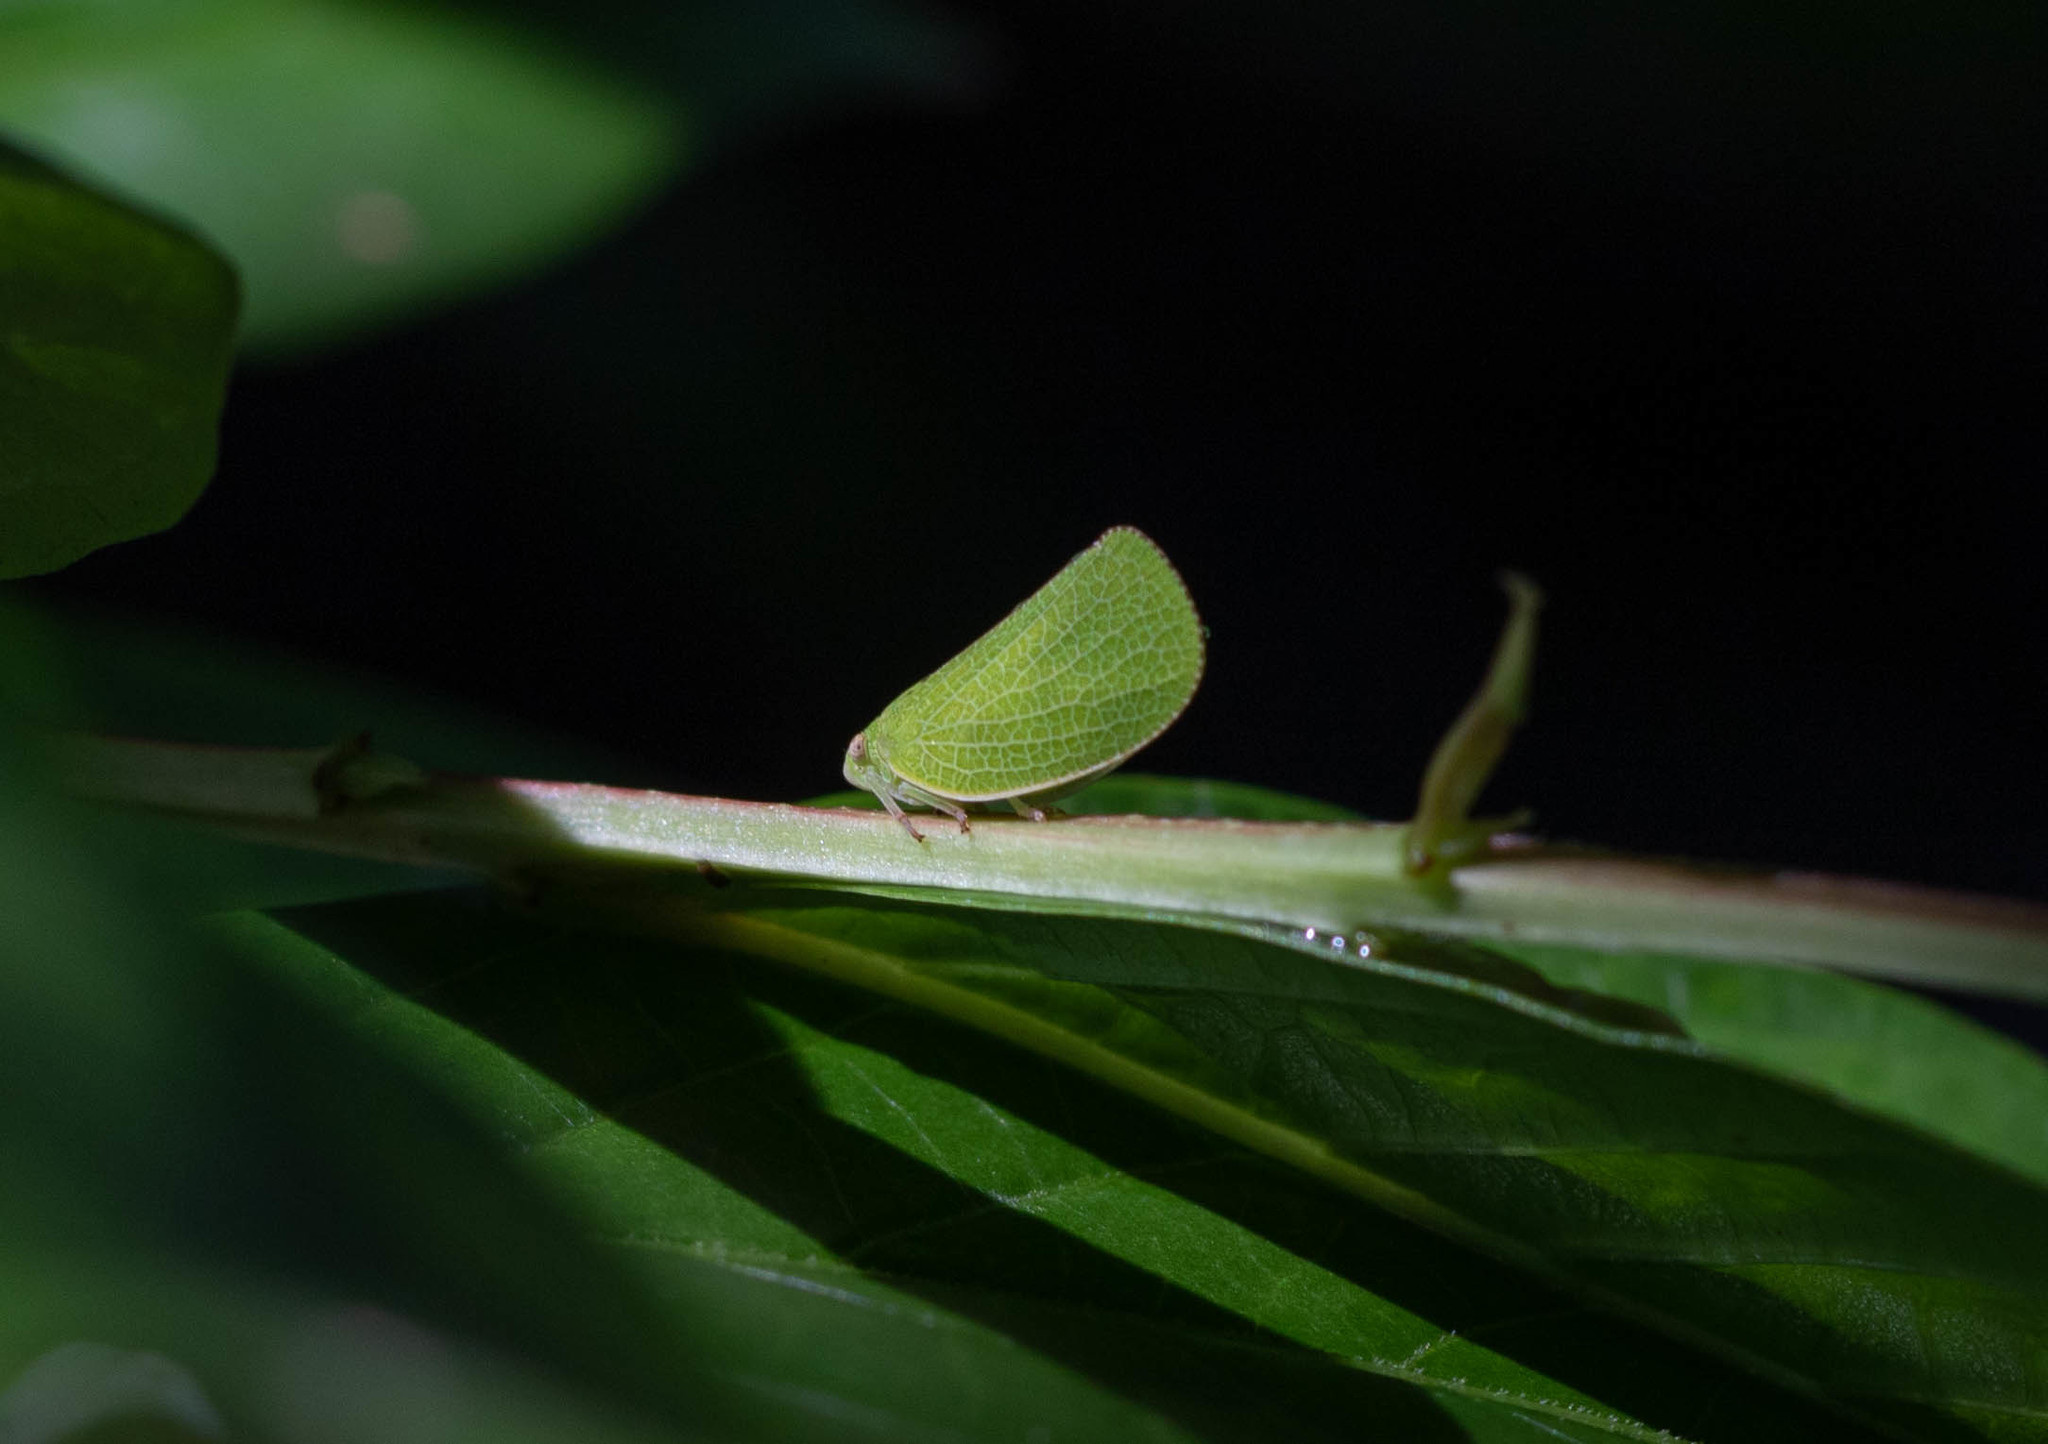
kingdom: Animalia
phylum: Arthropoda
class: Insecta
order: Hemiptera
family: Acanaloniidae
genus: Acanalonia
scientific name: Acanalonia conica
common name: Green cone-headed planthopper
